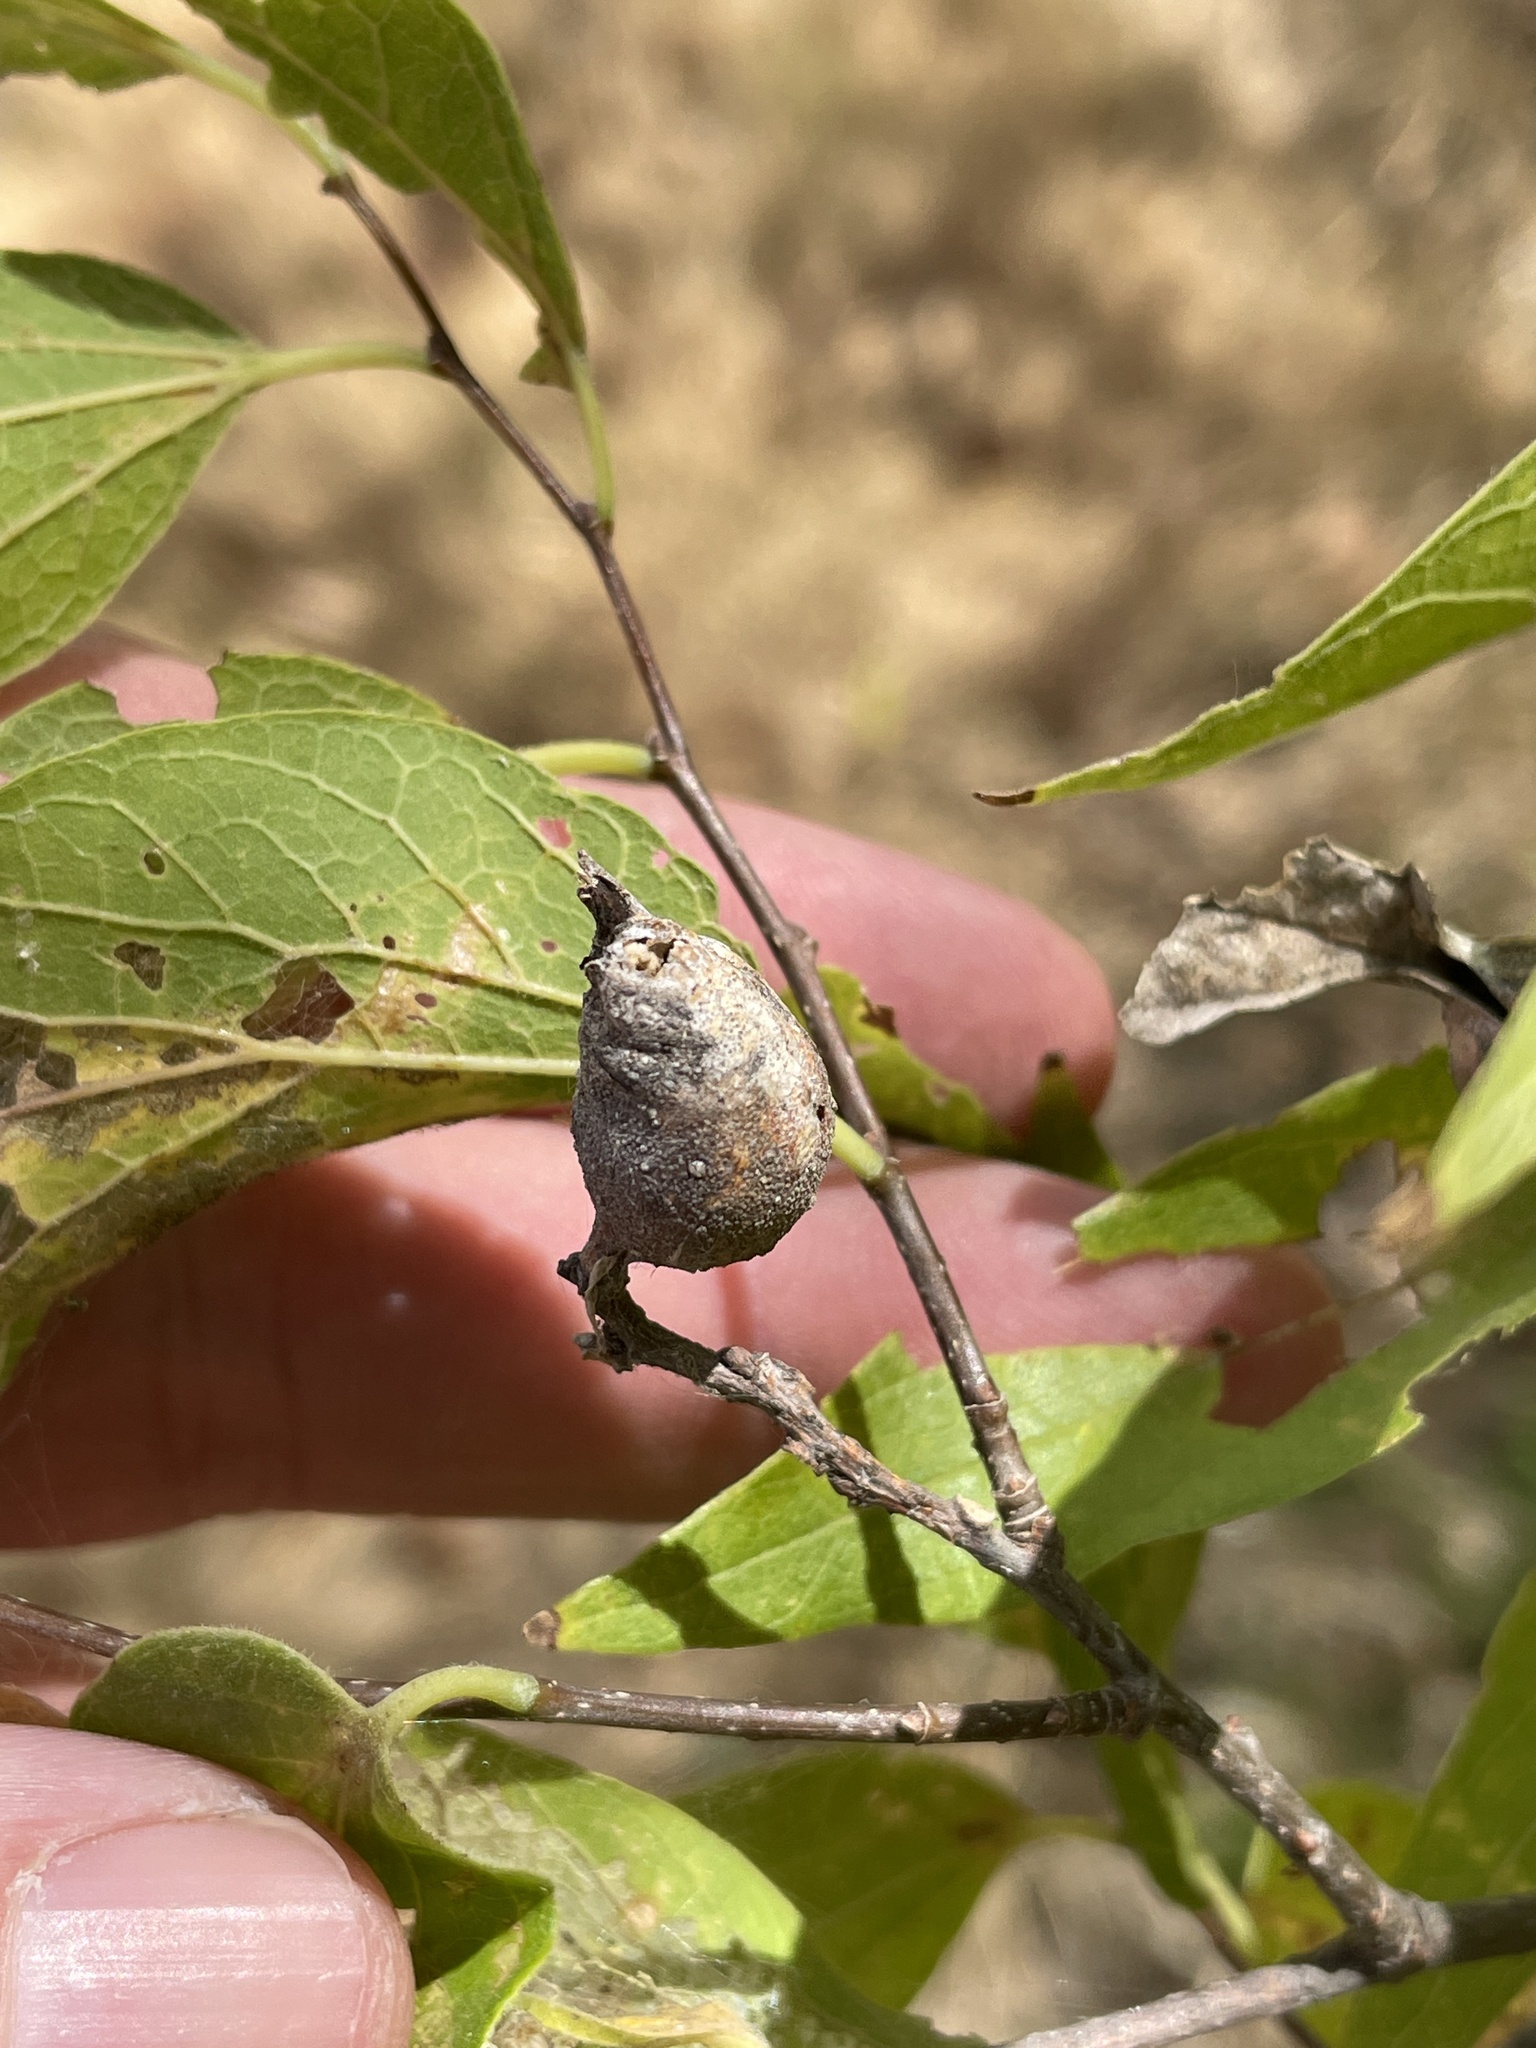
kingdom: Animalia
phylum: Arthropoda
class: Insecta
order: Hemiptera
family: Aphalaridae
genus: Pachypsylla
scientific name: Pachypsylla venusta
